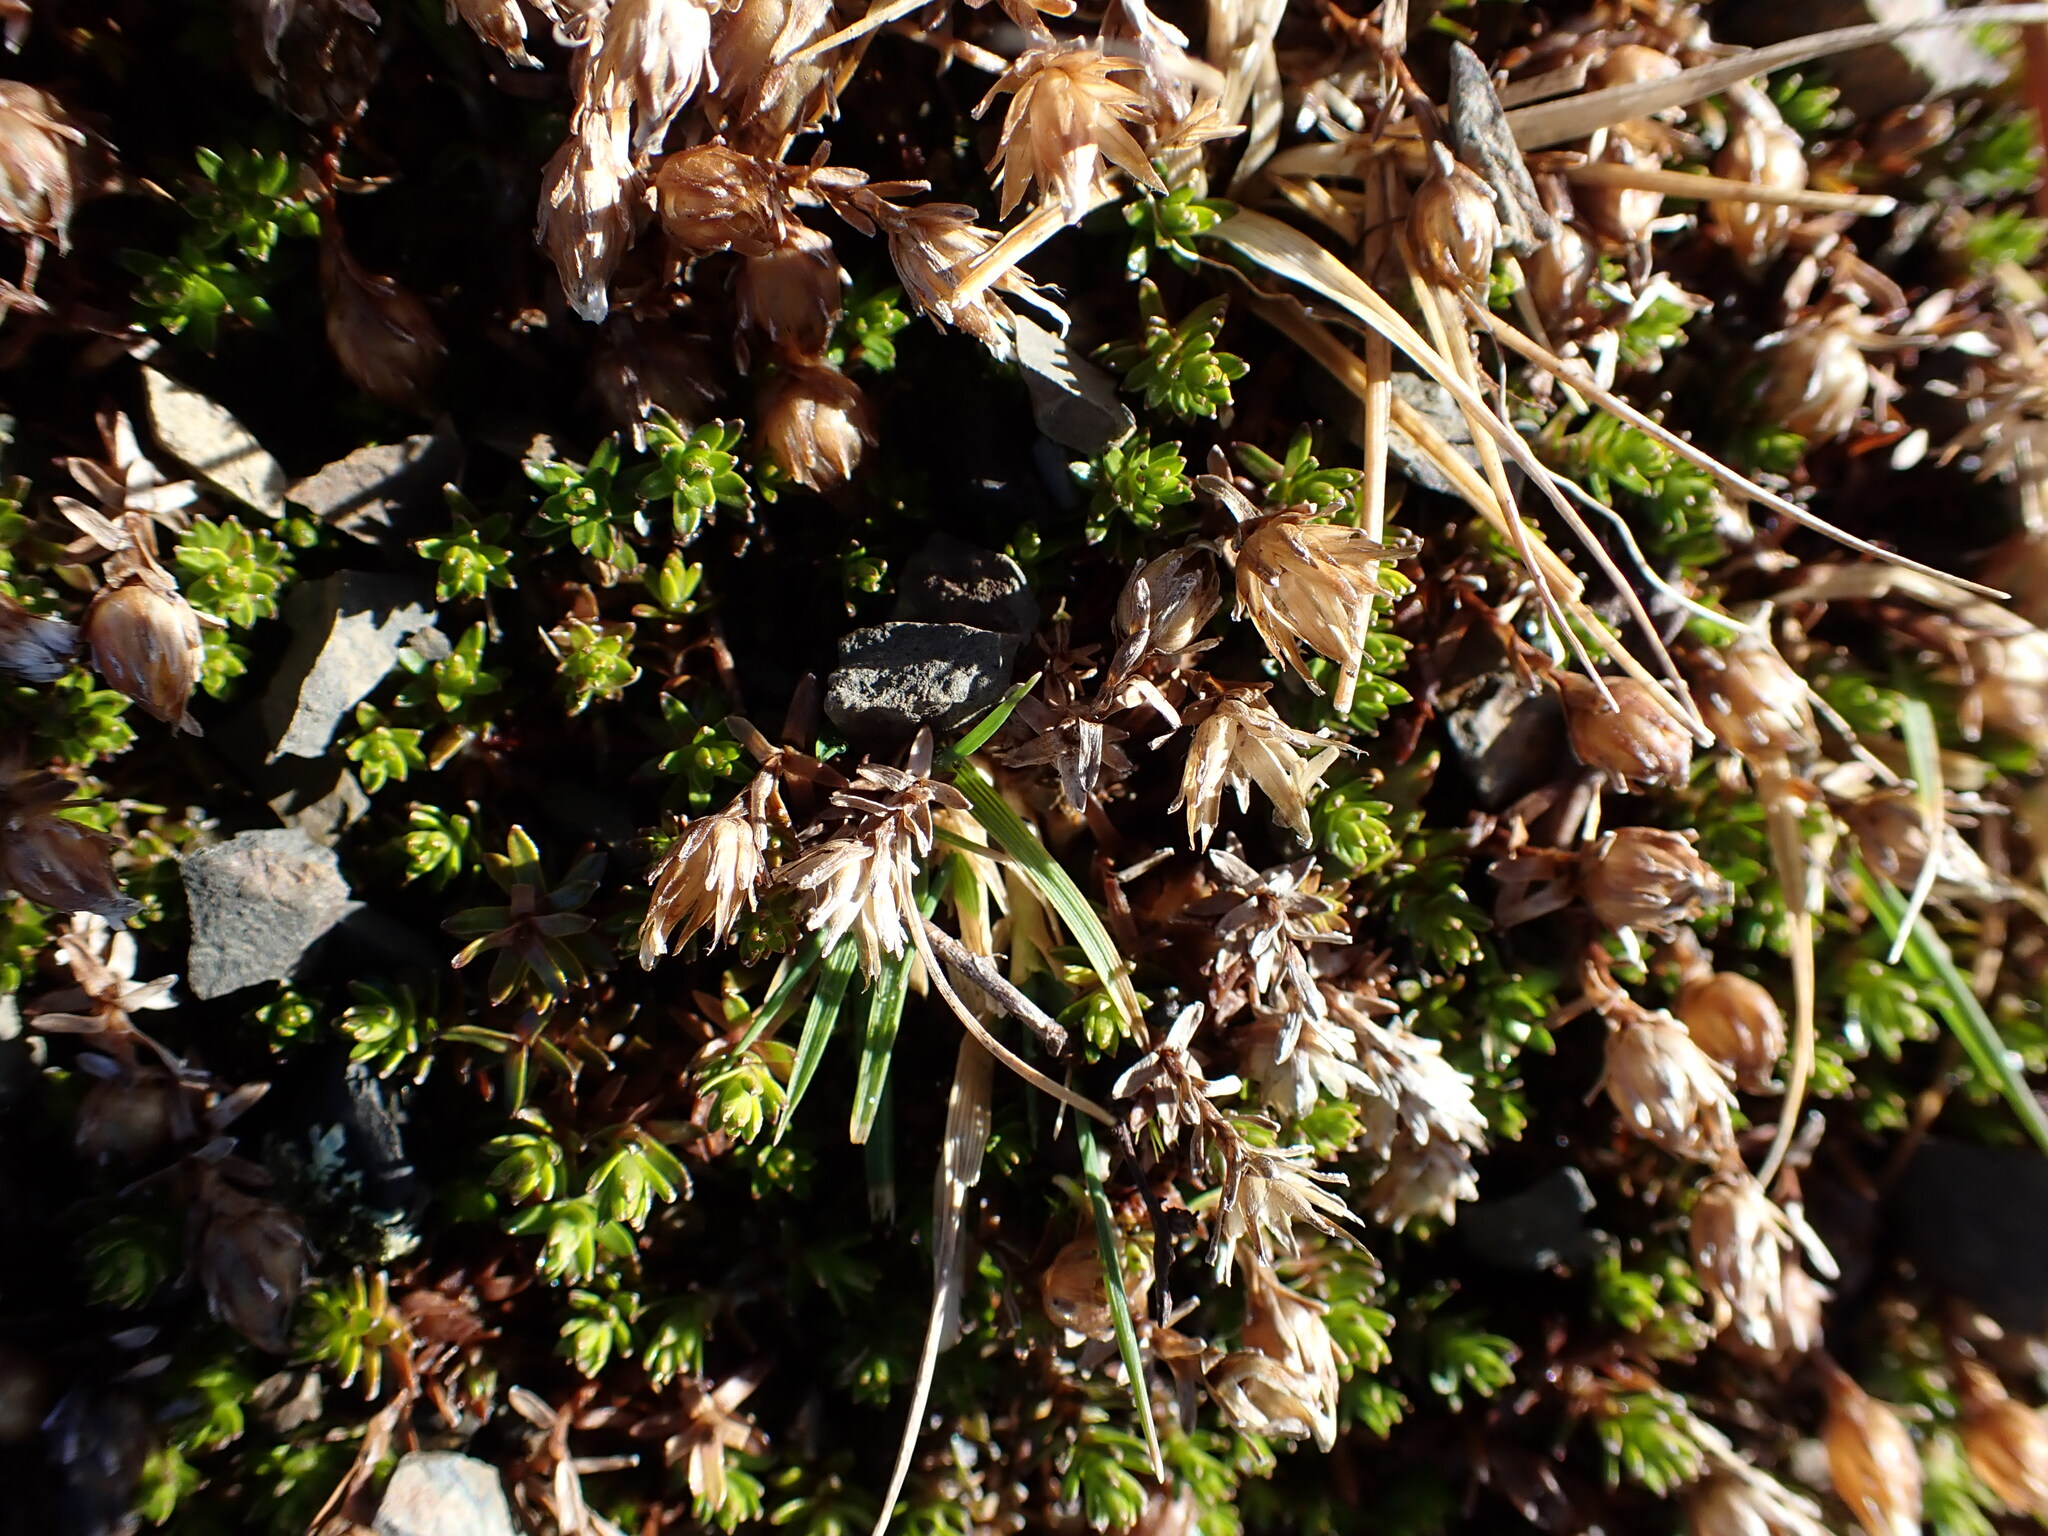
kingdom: Plantae
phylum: Tracheophyta
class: Magnoliopsida
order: Asterales
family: Asteraceae
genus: Raoulia
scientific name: Raoulia glabra
